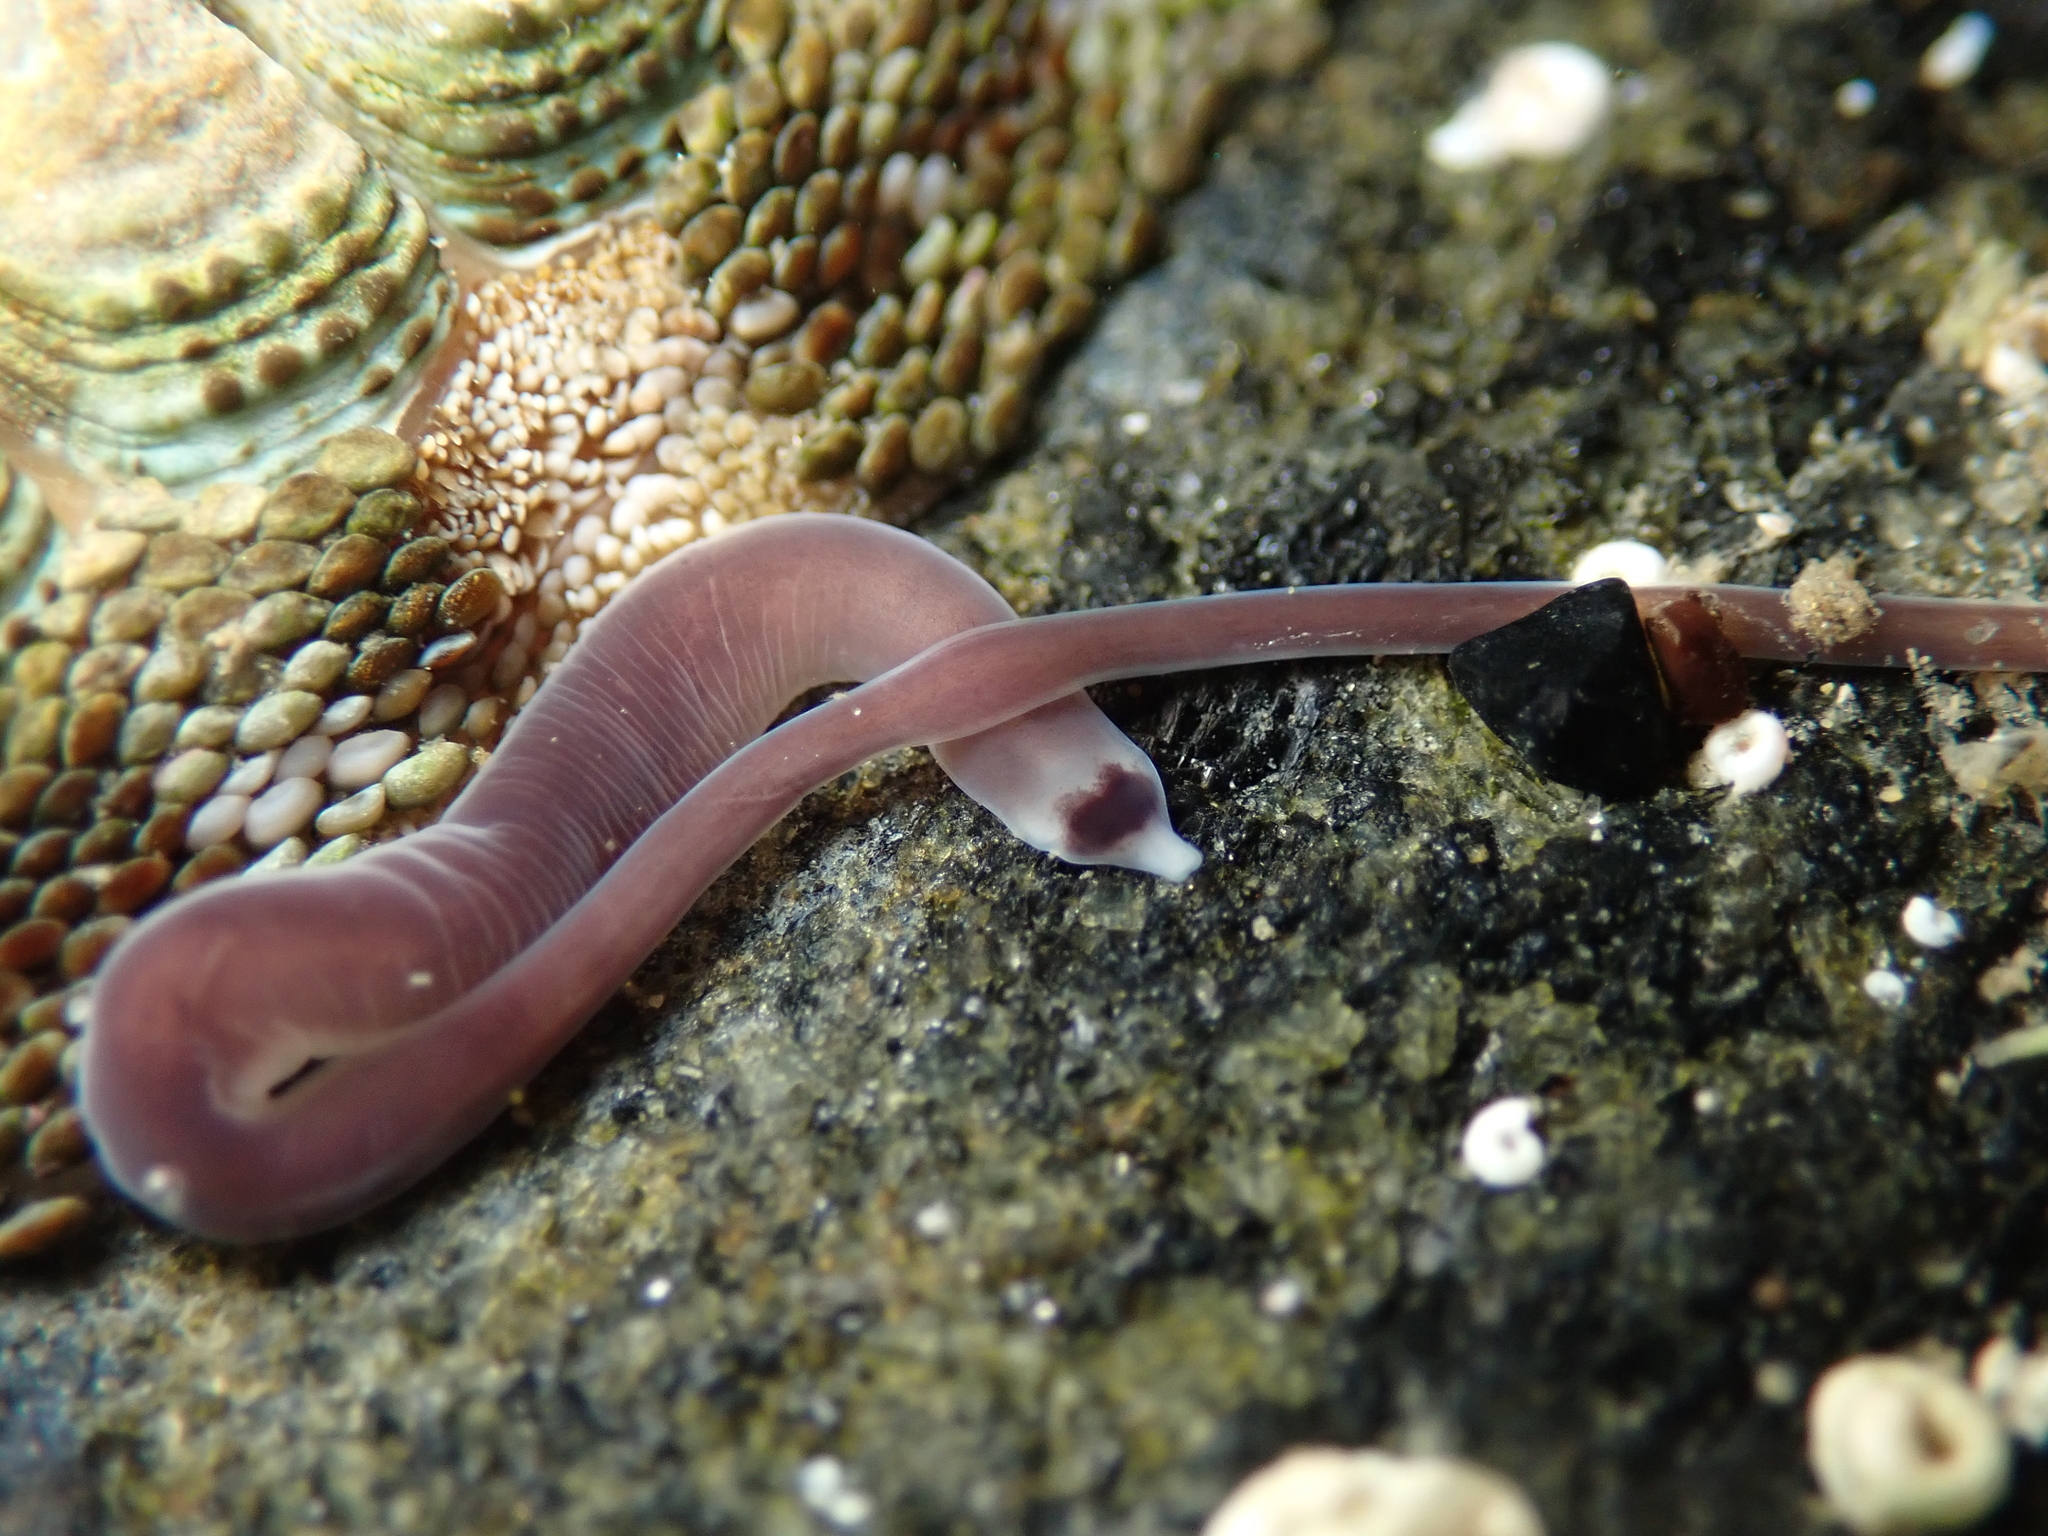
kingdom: Animalia
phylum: Nemertea
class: Hoplonemertea
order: Monostilifera
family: Neesiidae
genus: Noteonemertes
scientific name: Noteonemertes novaezealandiae
